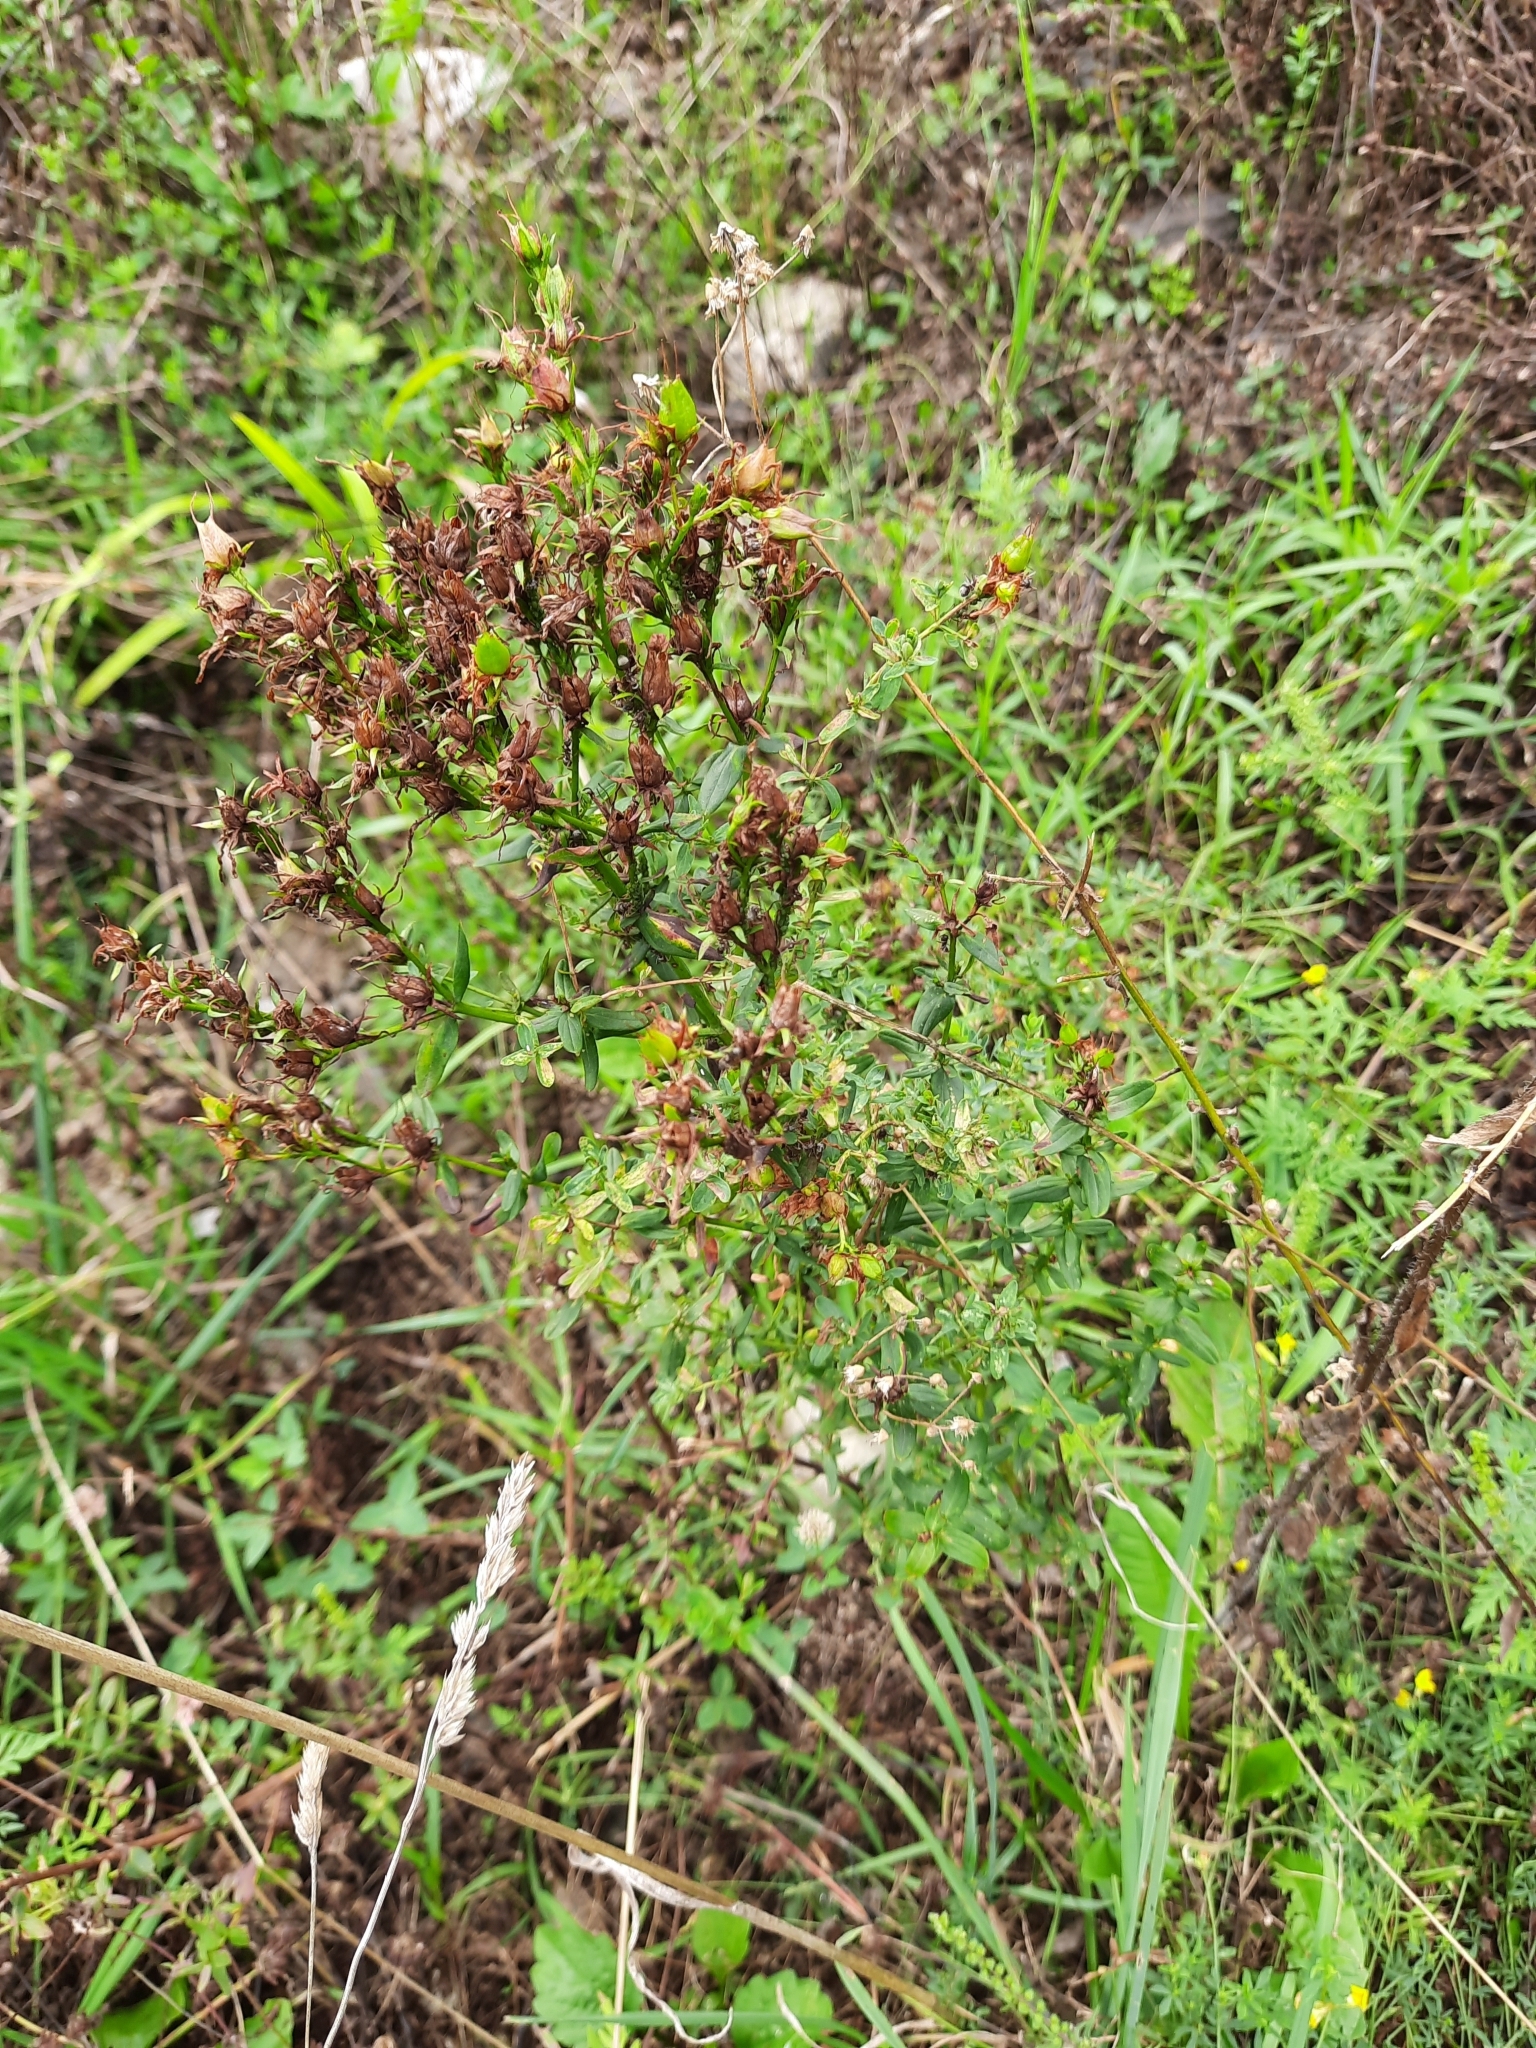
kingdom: Plantae
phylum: Tracheophyta
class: Magnoliopsida
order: Malpighiales
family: Hypericaceae
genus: Hypericum
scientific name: Hypericum perforatum
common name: Common st. johnswort
